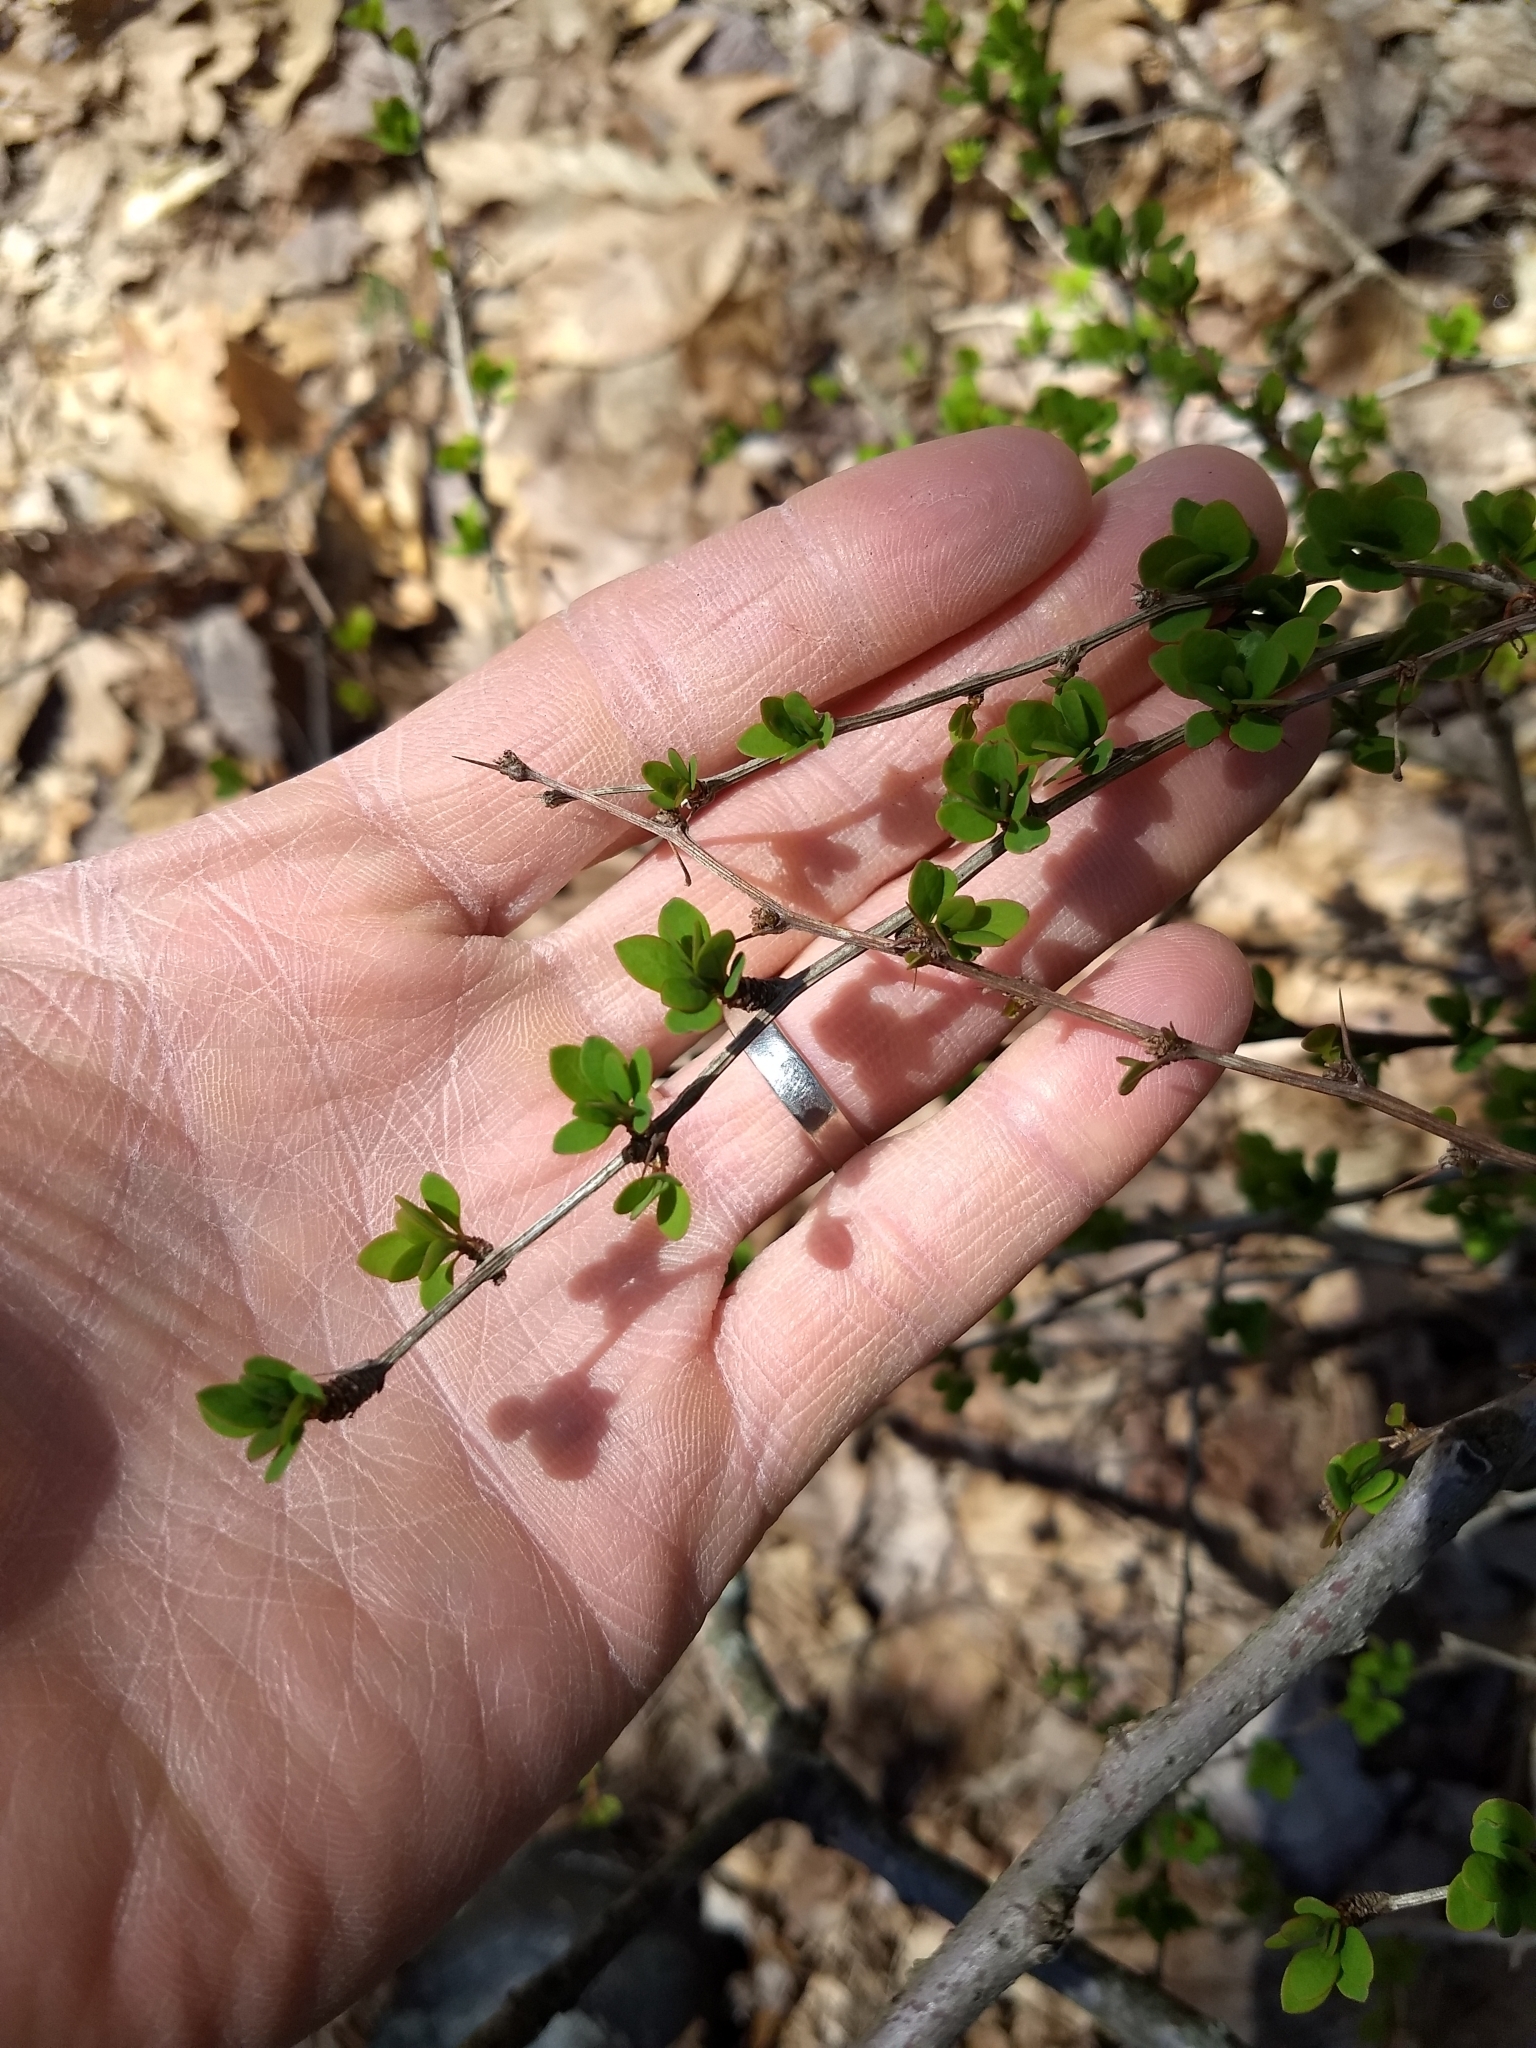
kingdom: Plantae
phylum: Tracheophyta
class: Magnoliopsida
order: Ranunculales
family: Berberidaceae
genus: Berberis
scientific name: Berberis thunbergii
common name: Japanese barberry
